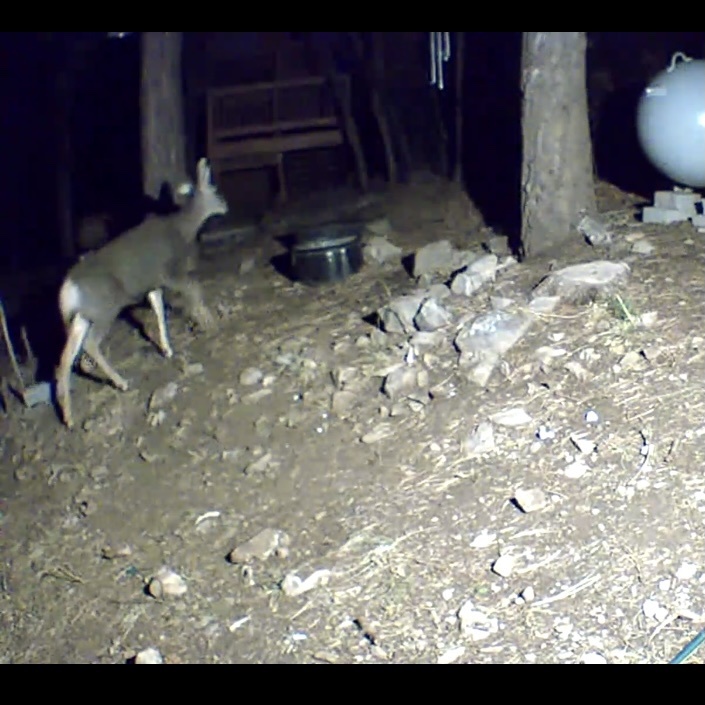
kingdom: Animalia
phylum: Chordata
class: Mammalia
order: Artiodactyla
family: Cervidae
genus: Odocoileus
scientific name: Odocoileus hemionus
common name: Mule deer
